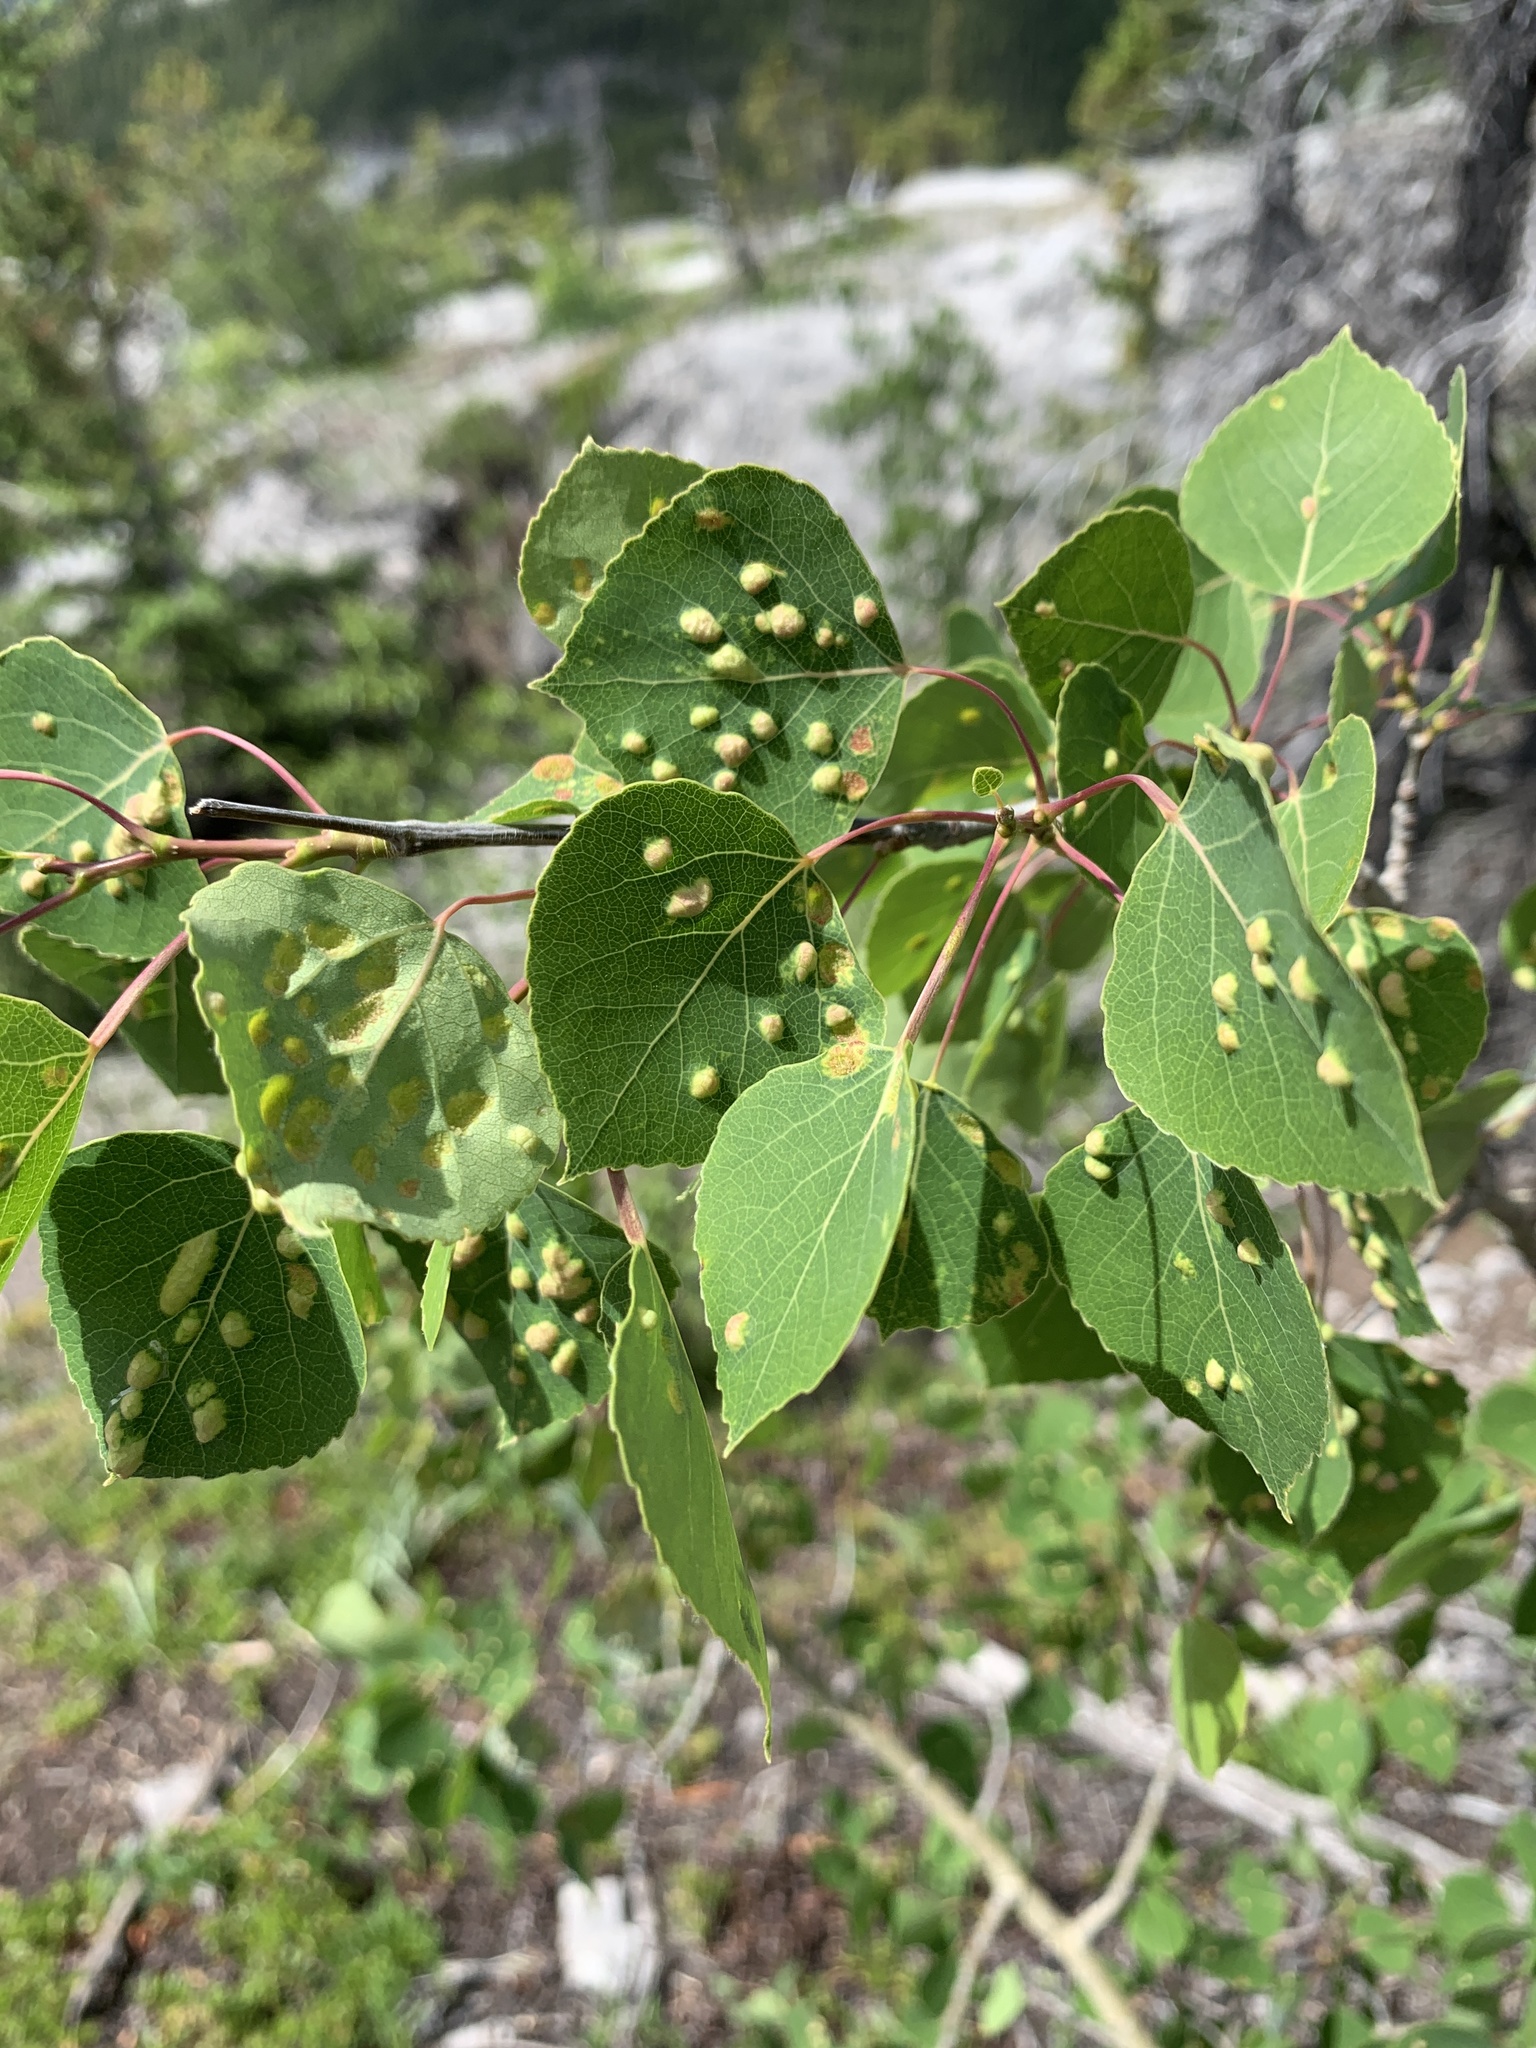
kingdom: Plantae
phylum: Tracheophyta
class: Magnoliopsida
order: Malpighiales
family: Salicaceae
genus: Populus
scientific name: Populus tremuloides
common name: Quaking aspen
